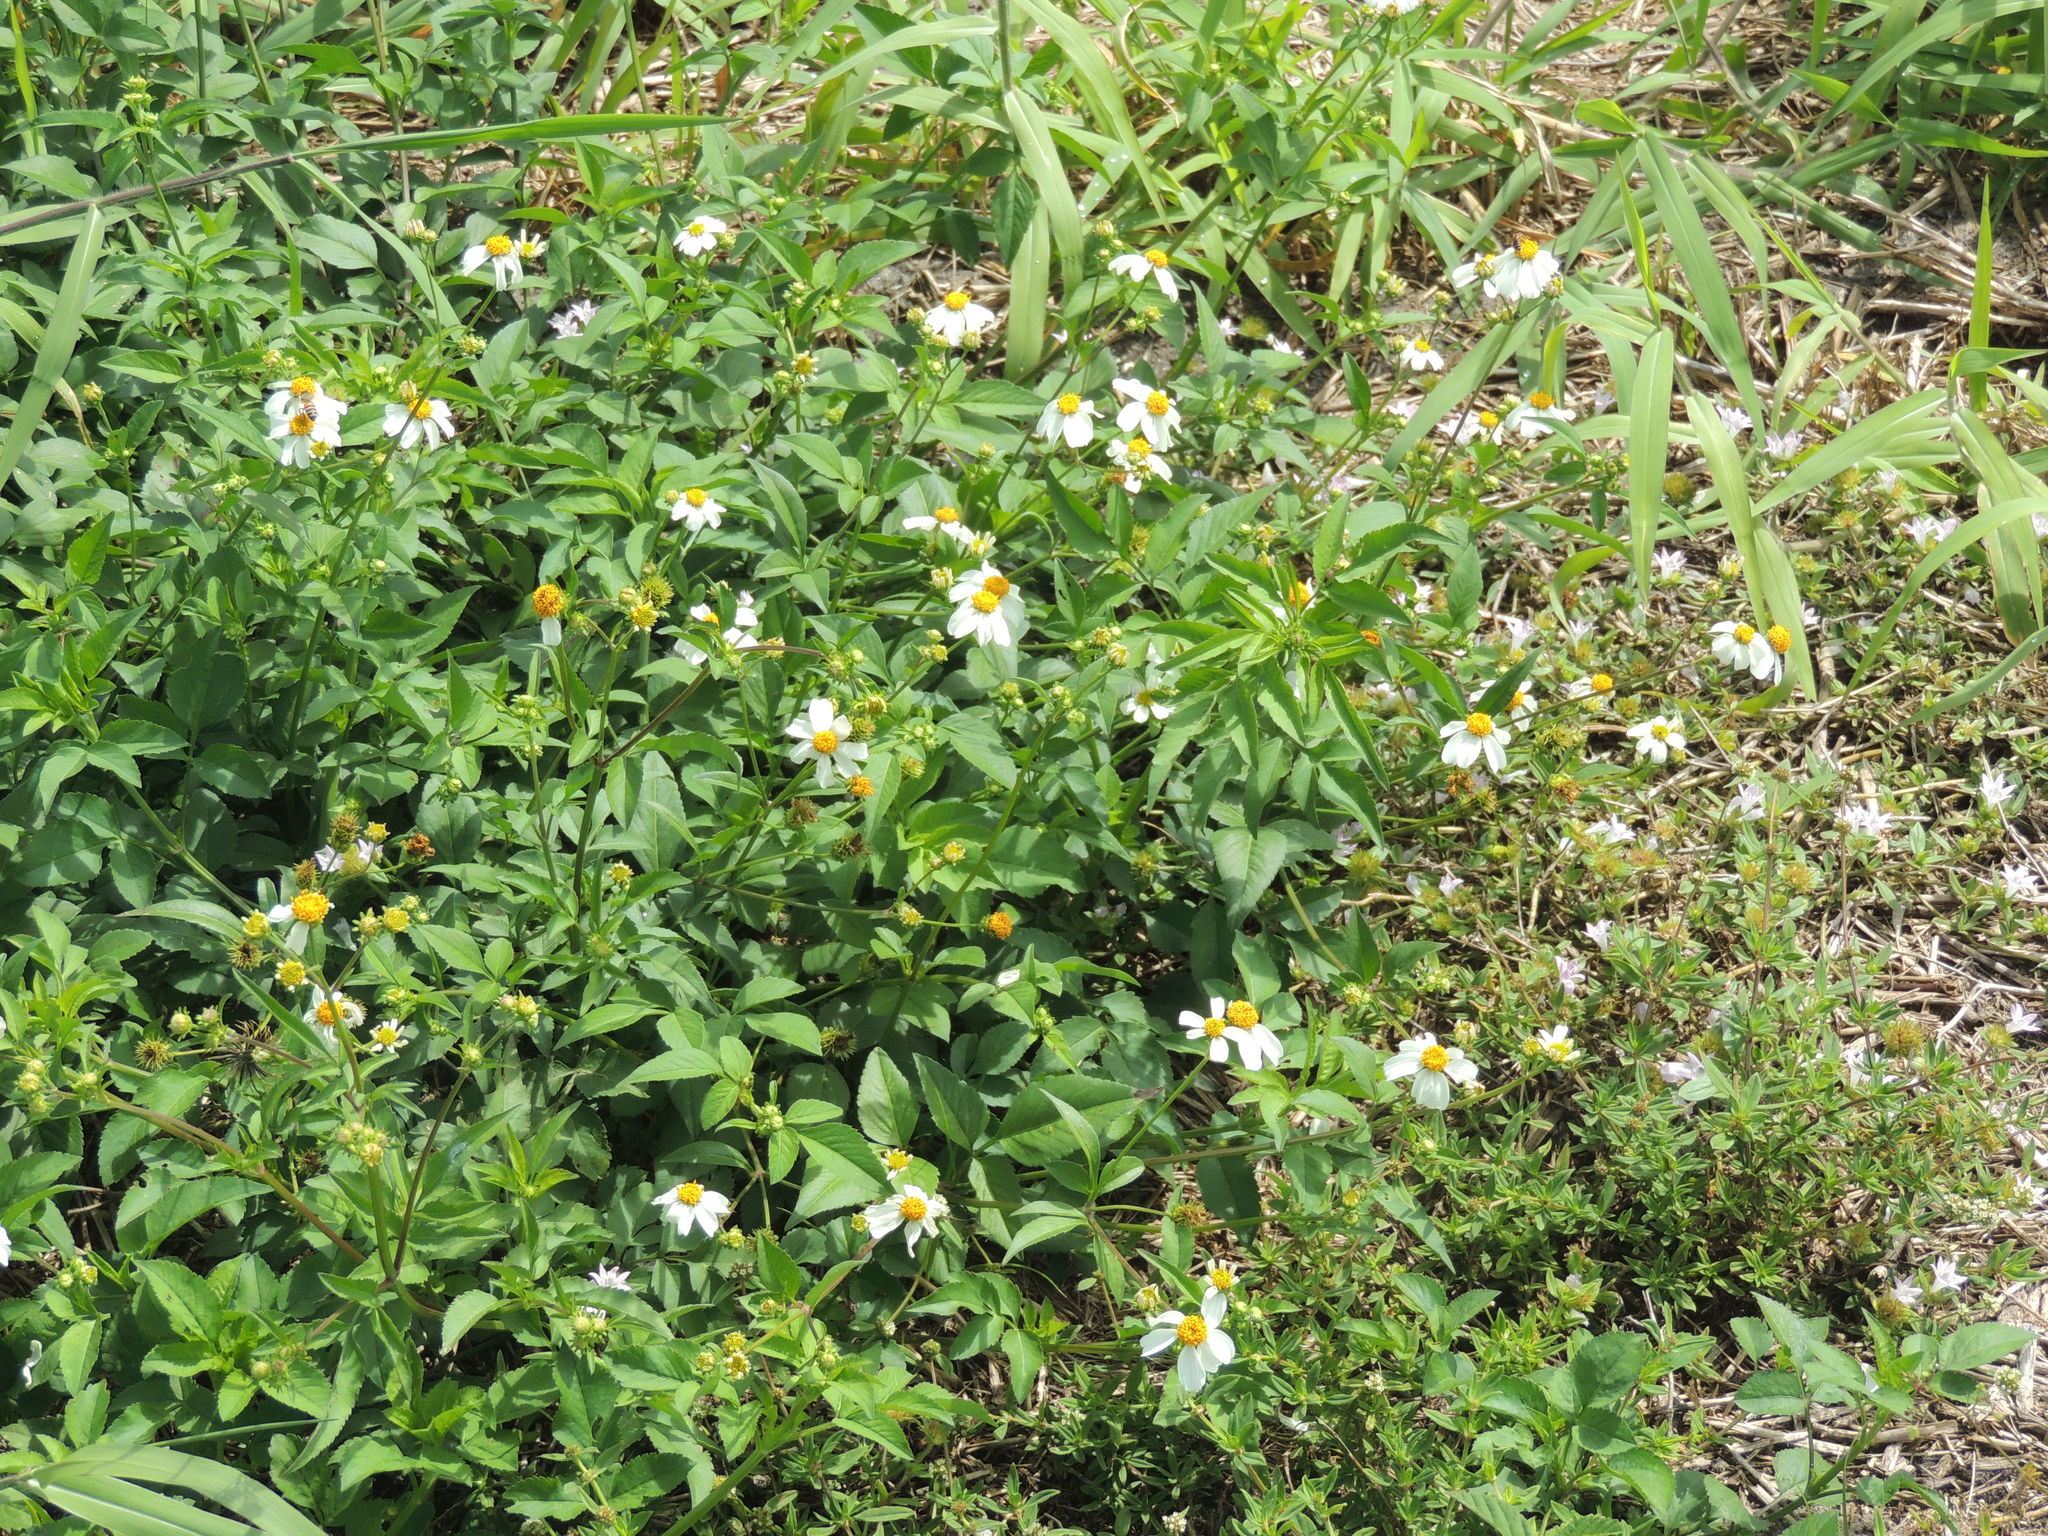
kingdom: Plantae
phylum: Tracheophyta
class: Magnoliopsida
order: Asterales
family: Asteraceae
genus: Bidens
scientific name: Bidens alba
